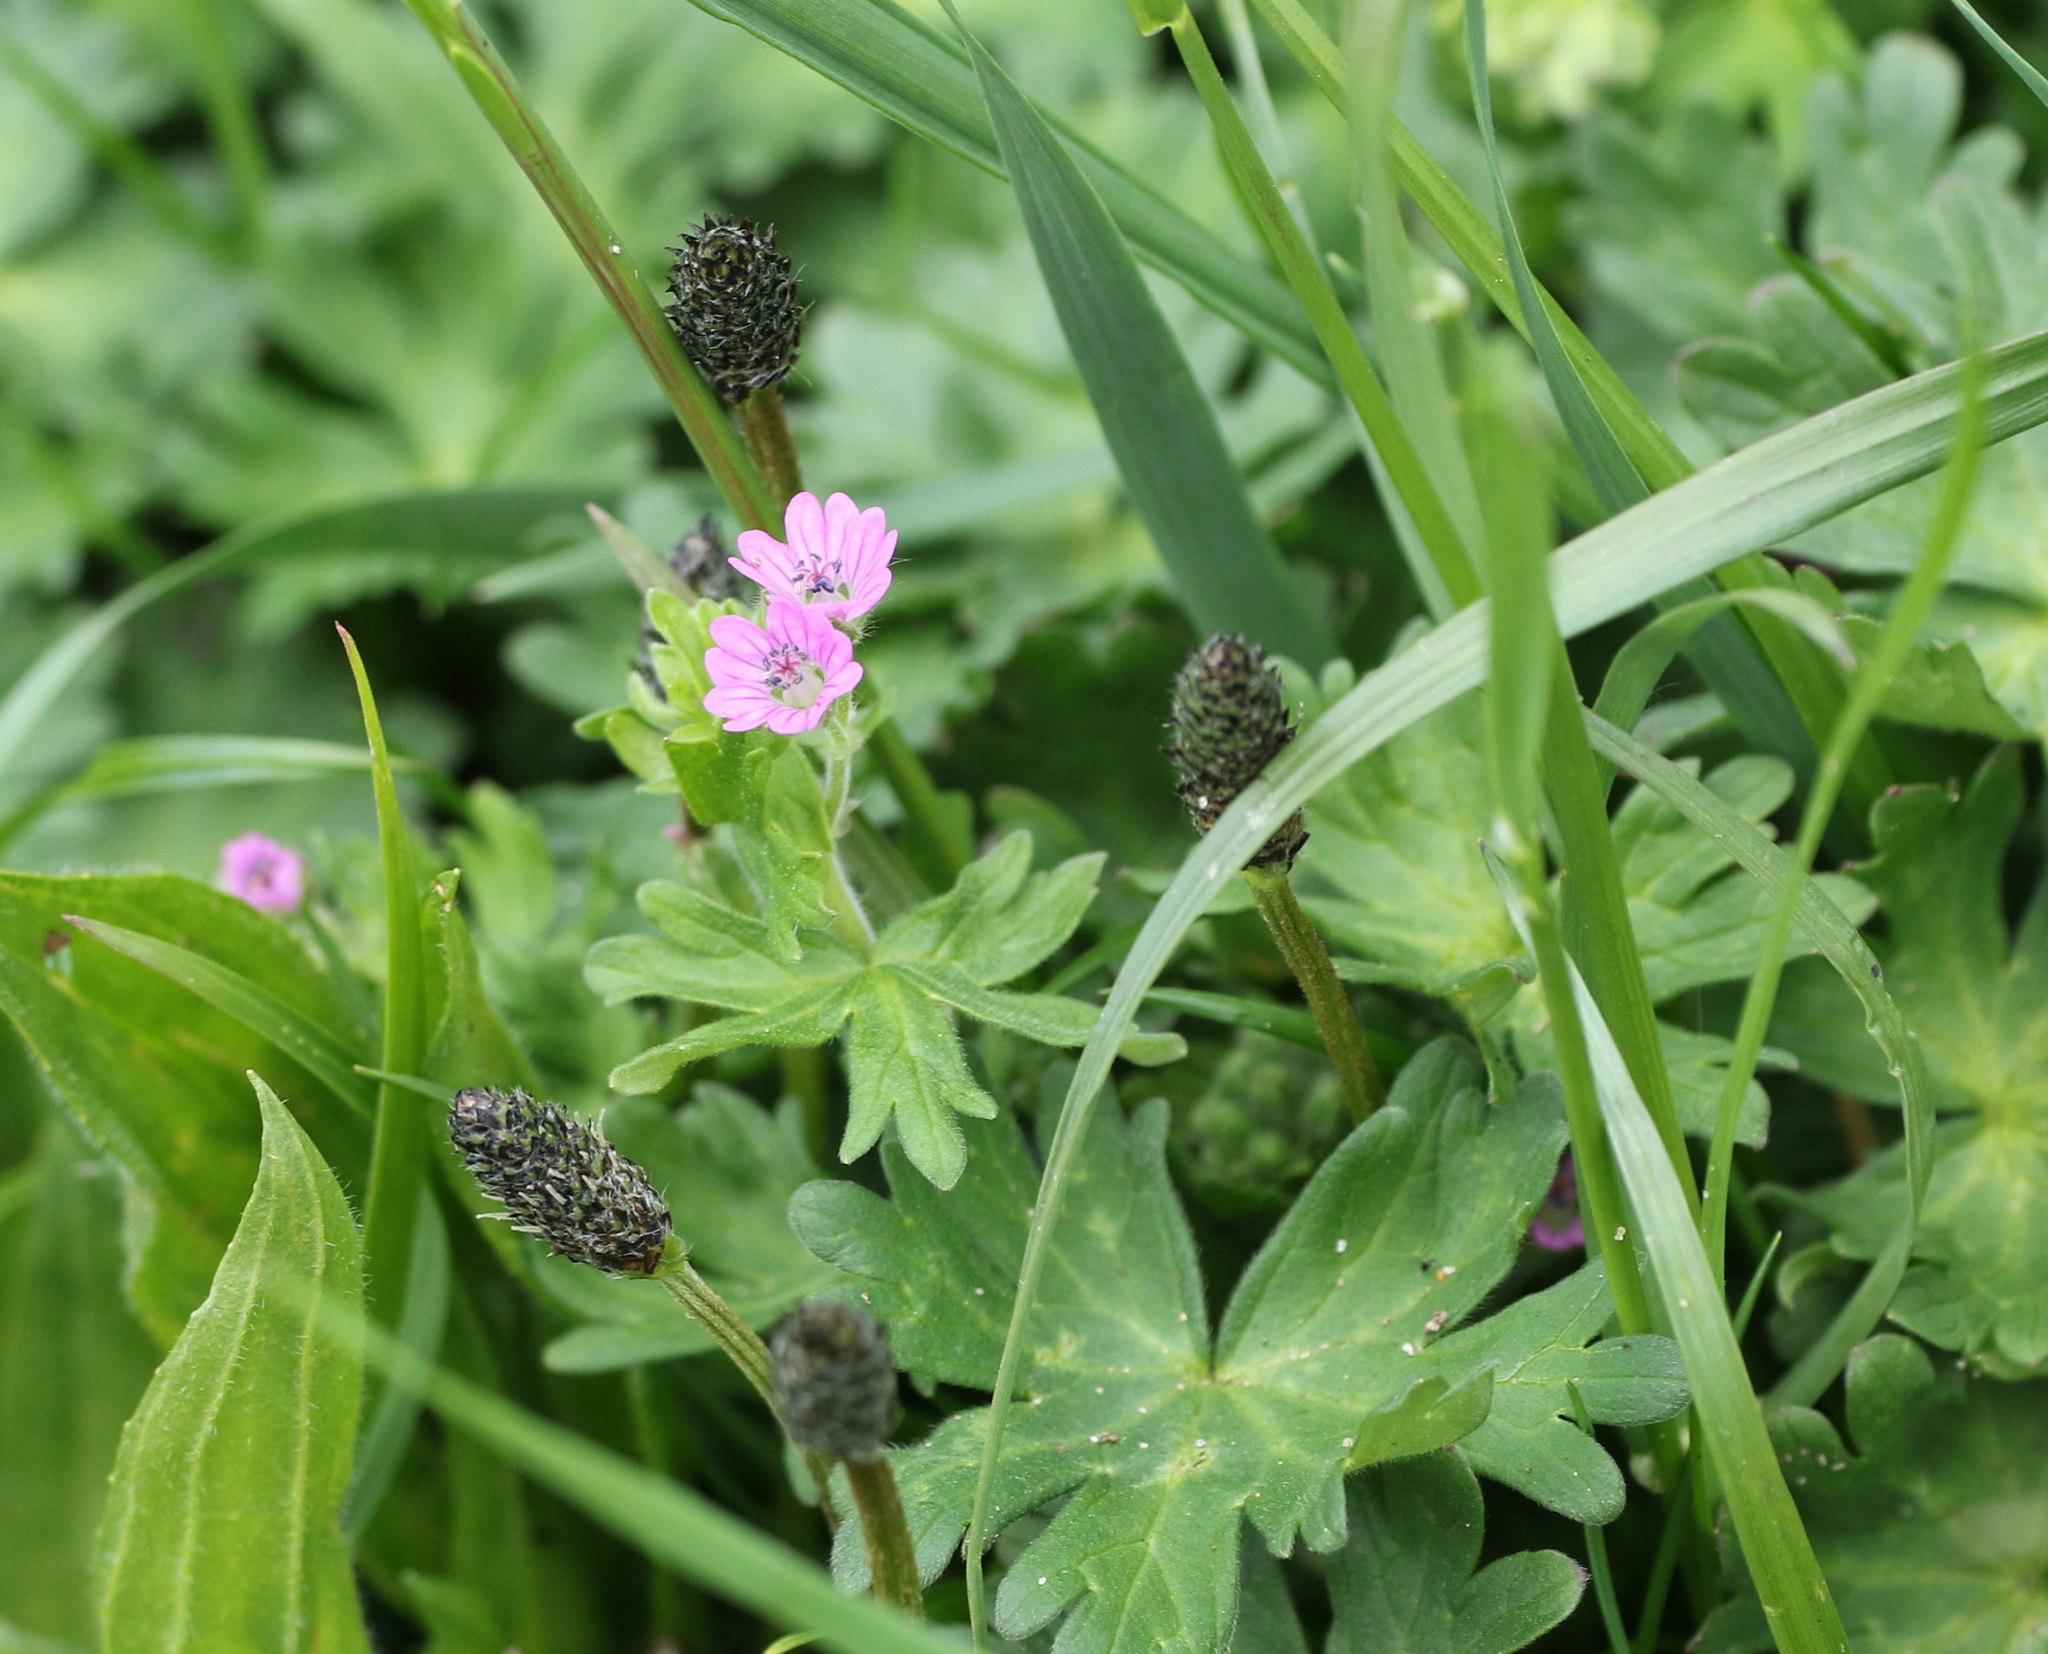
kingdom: Plantae
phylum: Tracheophyta
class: Magnoliopsida
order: Geraniales
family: Geraniaceae
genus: Geranium
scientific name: Geranium molle
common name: Dove's-foot crane's-bill
